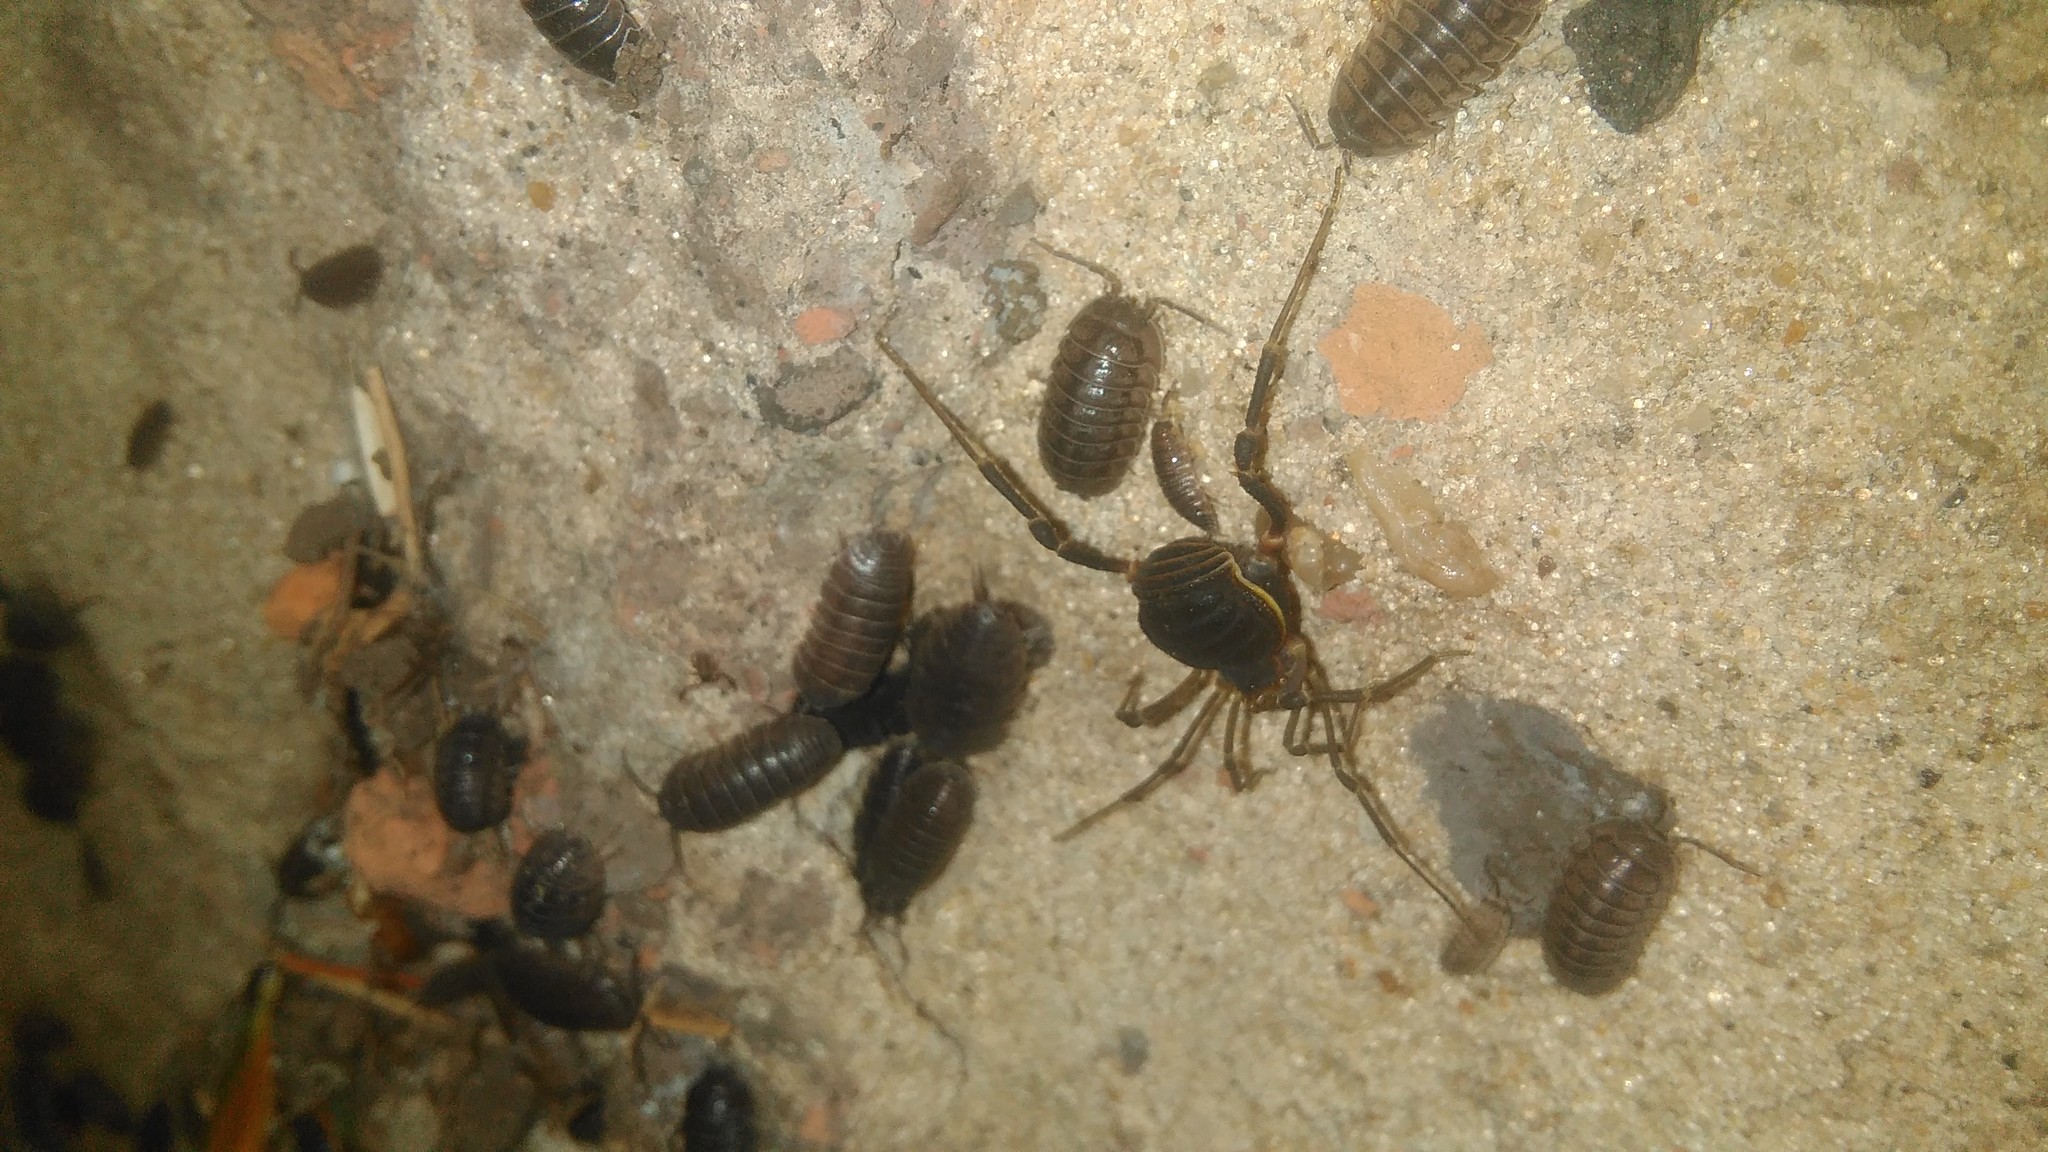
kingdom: Animalia
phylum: Arthropoda
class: Arachnida
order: Opiliones
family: Gonyleptidae
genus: Acanthopachylus
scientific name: Acanthopachylus robustus
